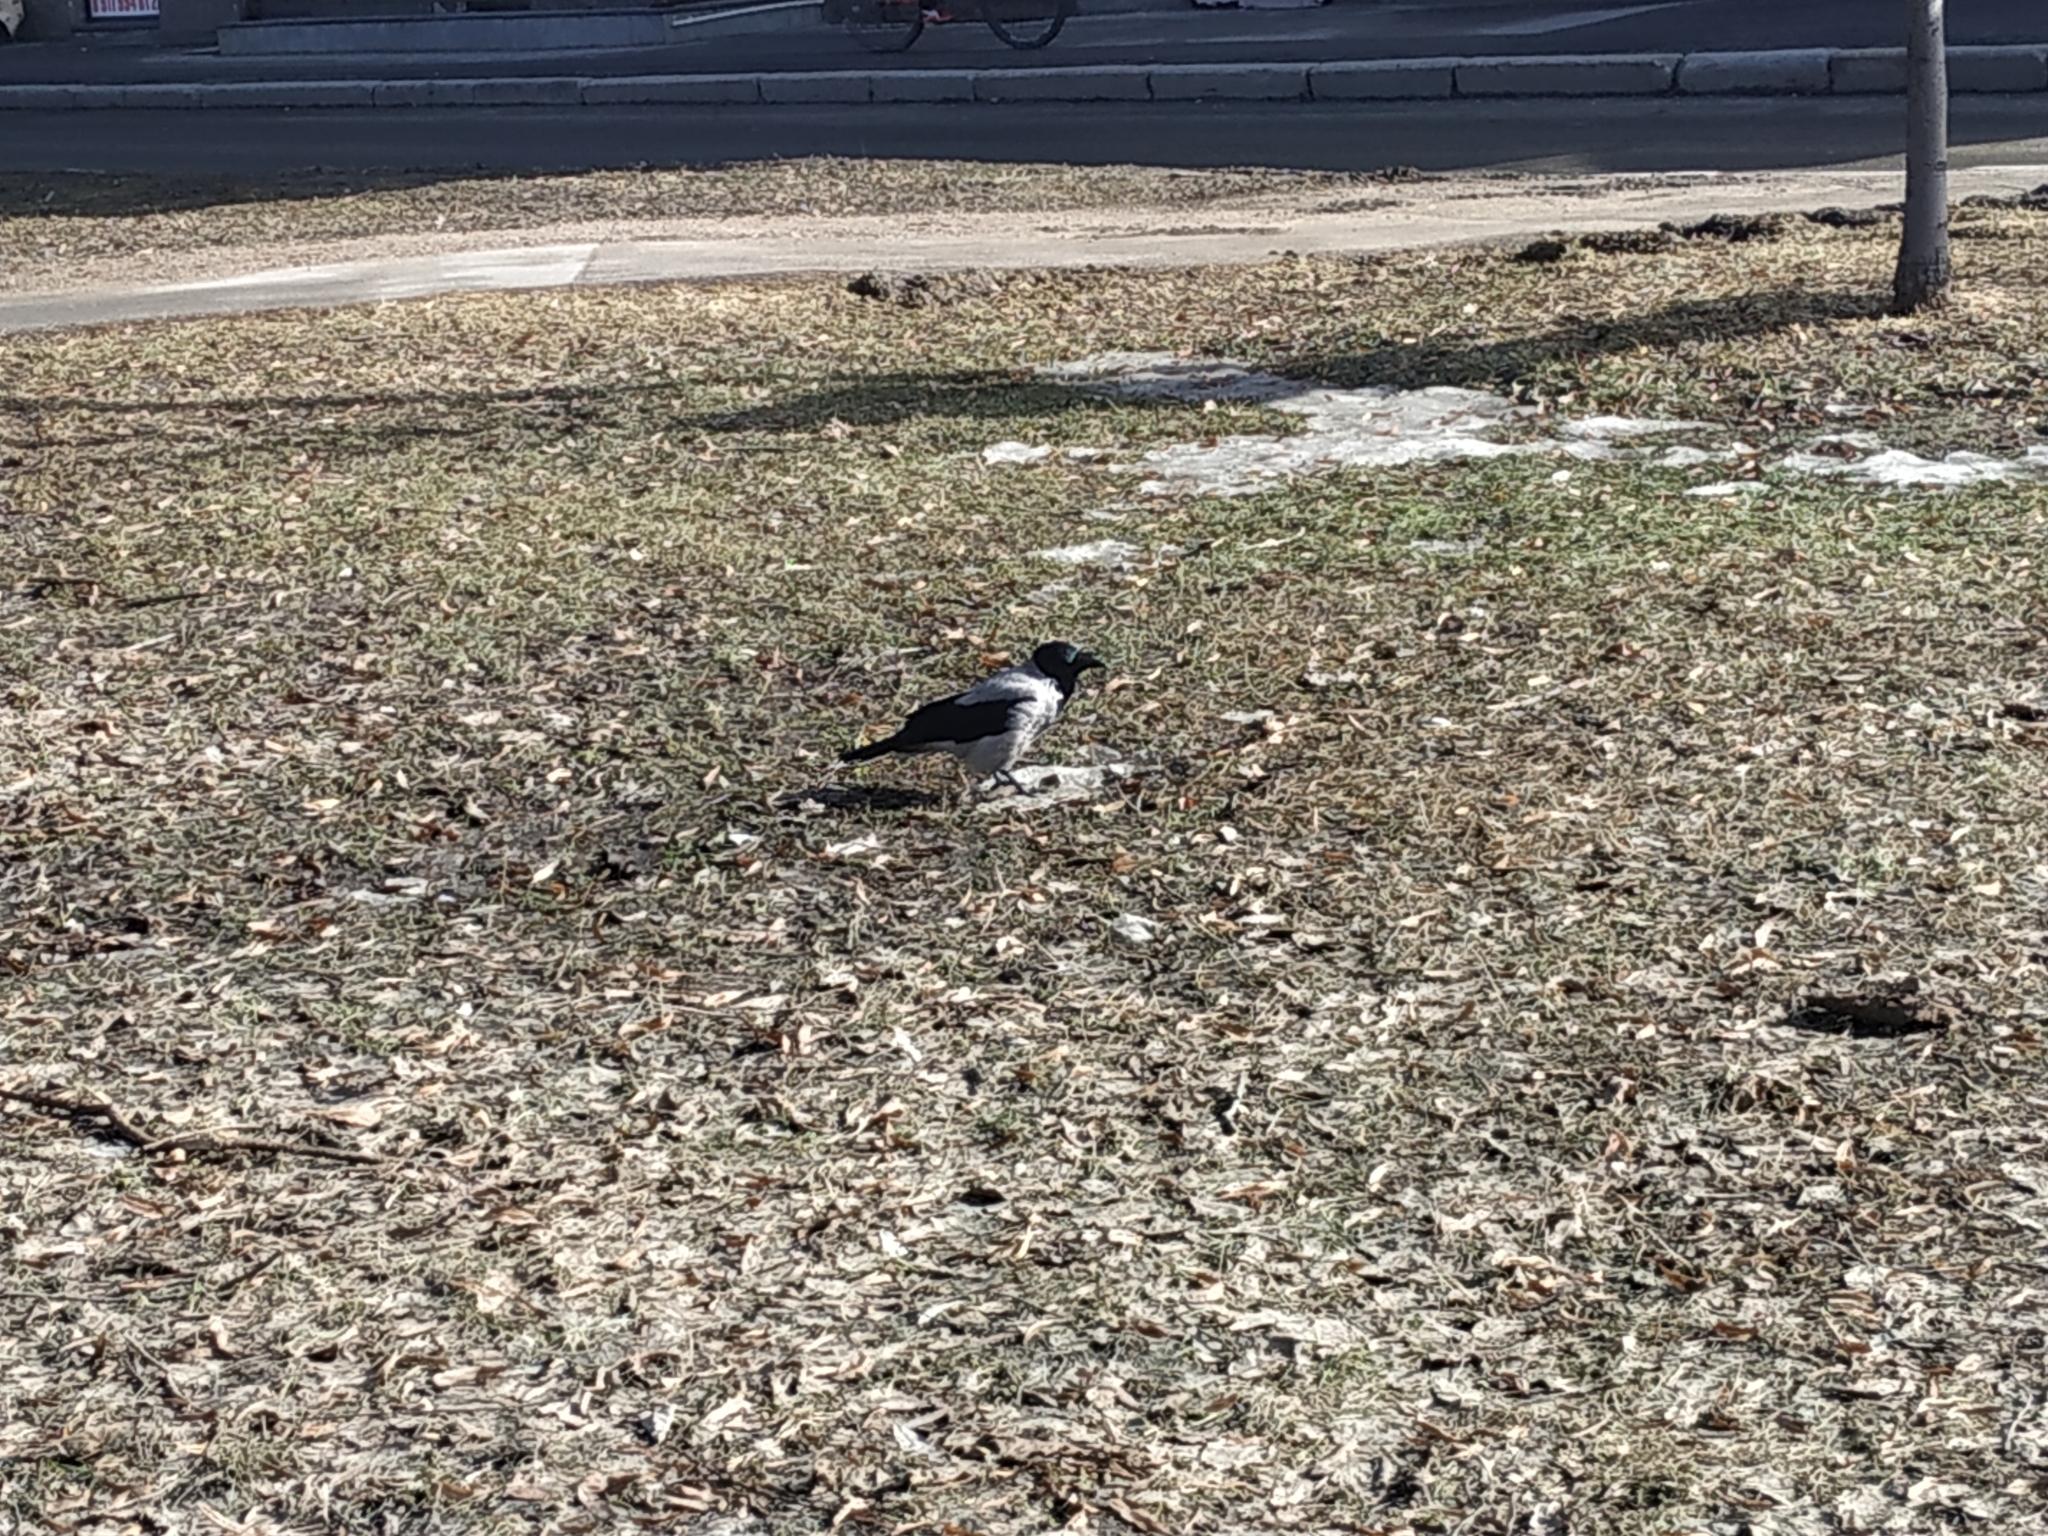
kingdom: Animalia
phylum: Chordata
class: Aves
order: Passeriformes
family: Corvidae
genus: Corvus
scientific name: Corvus cornix
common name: Hooded crow
